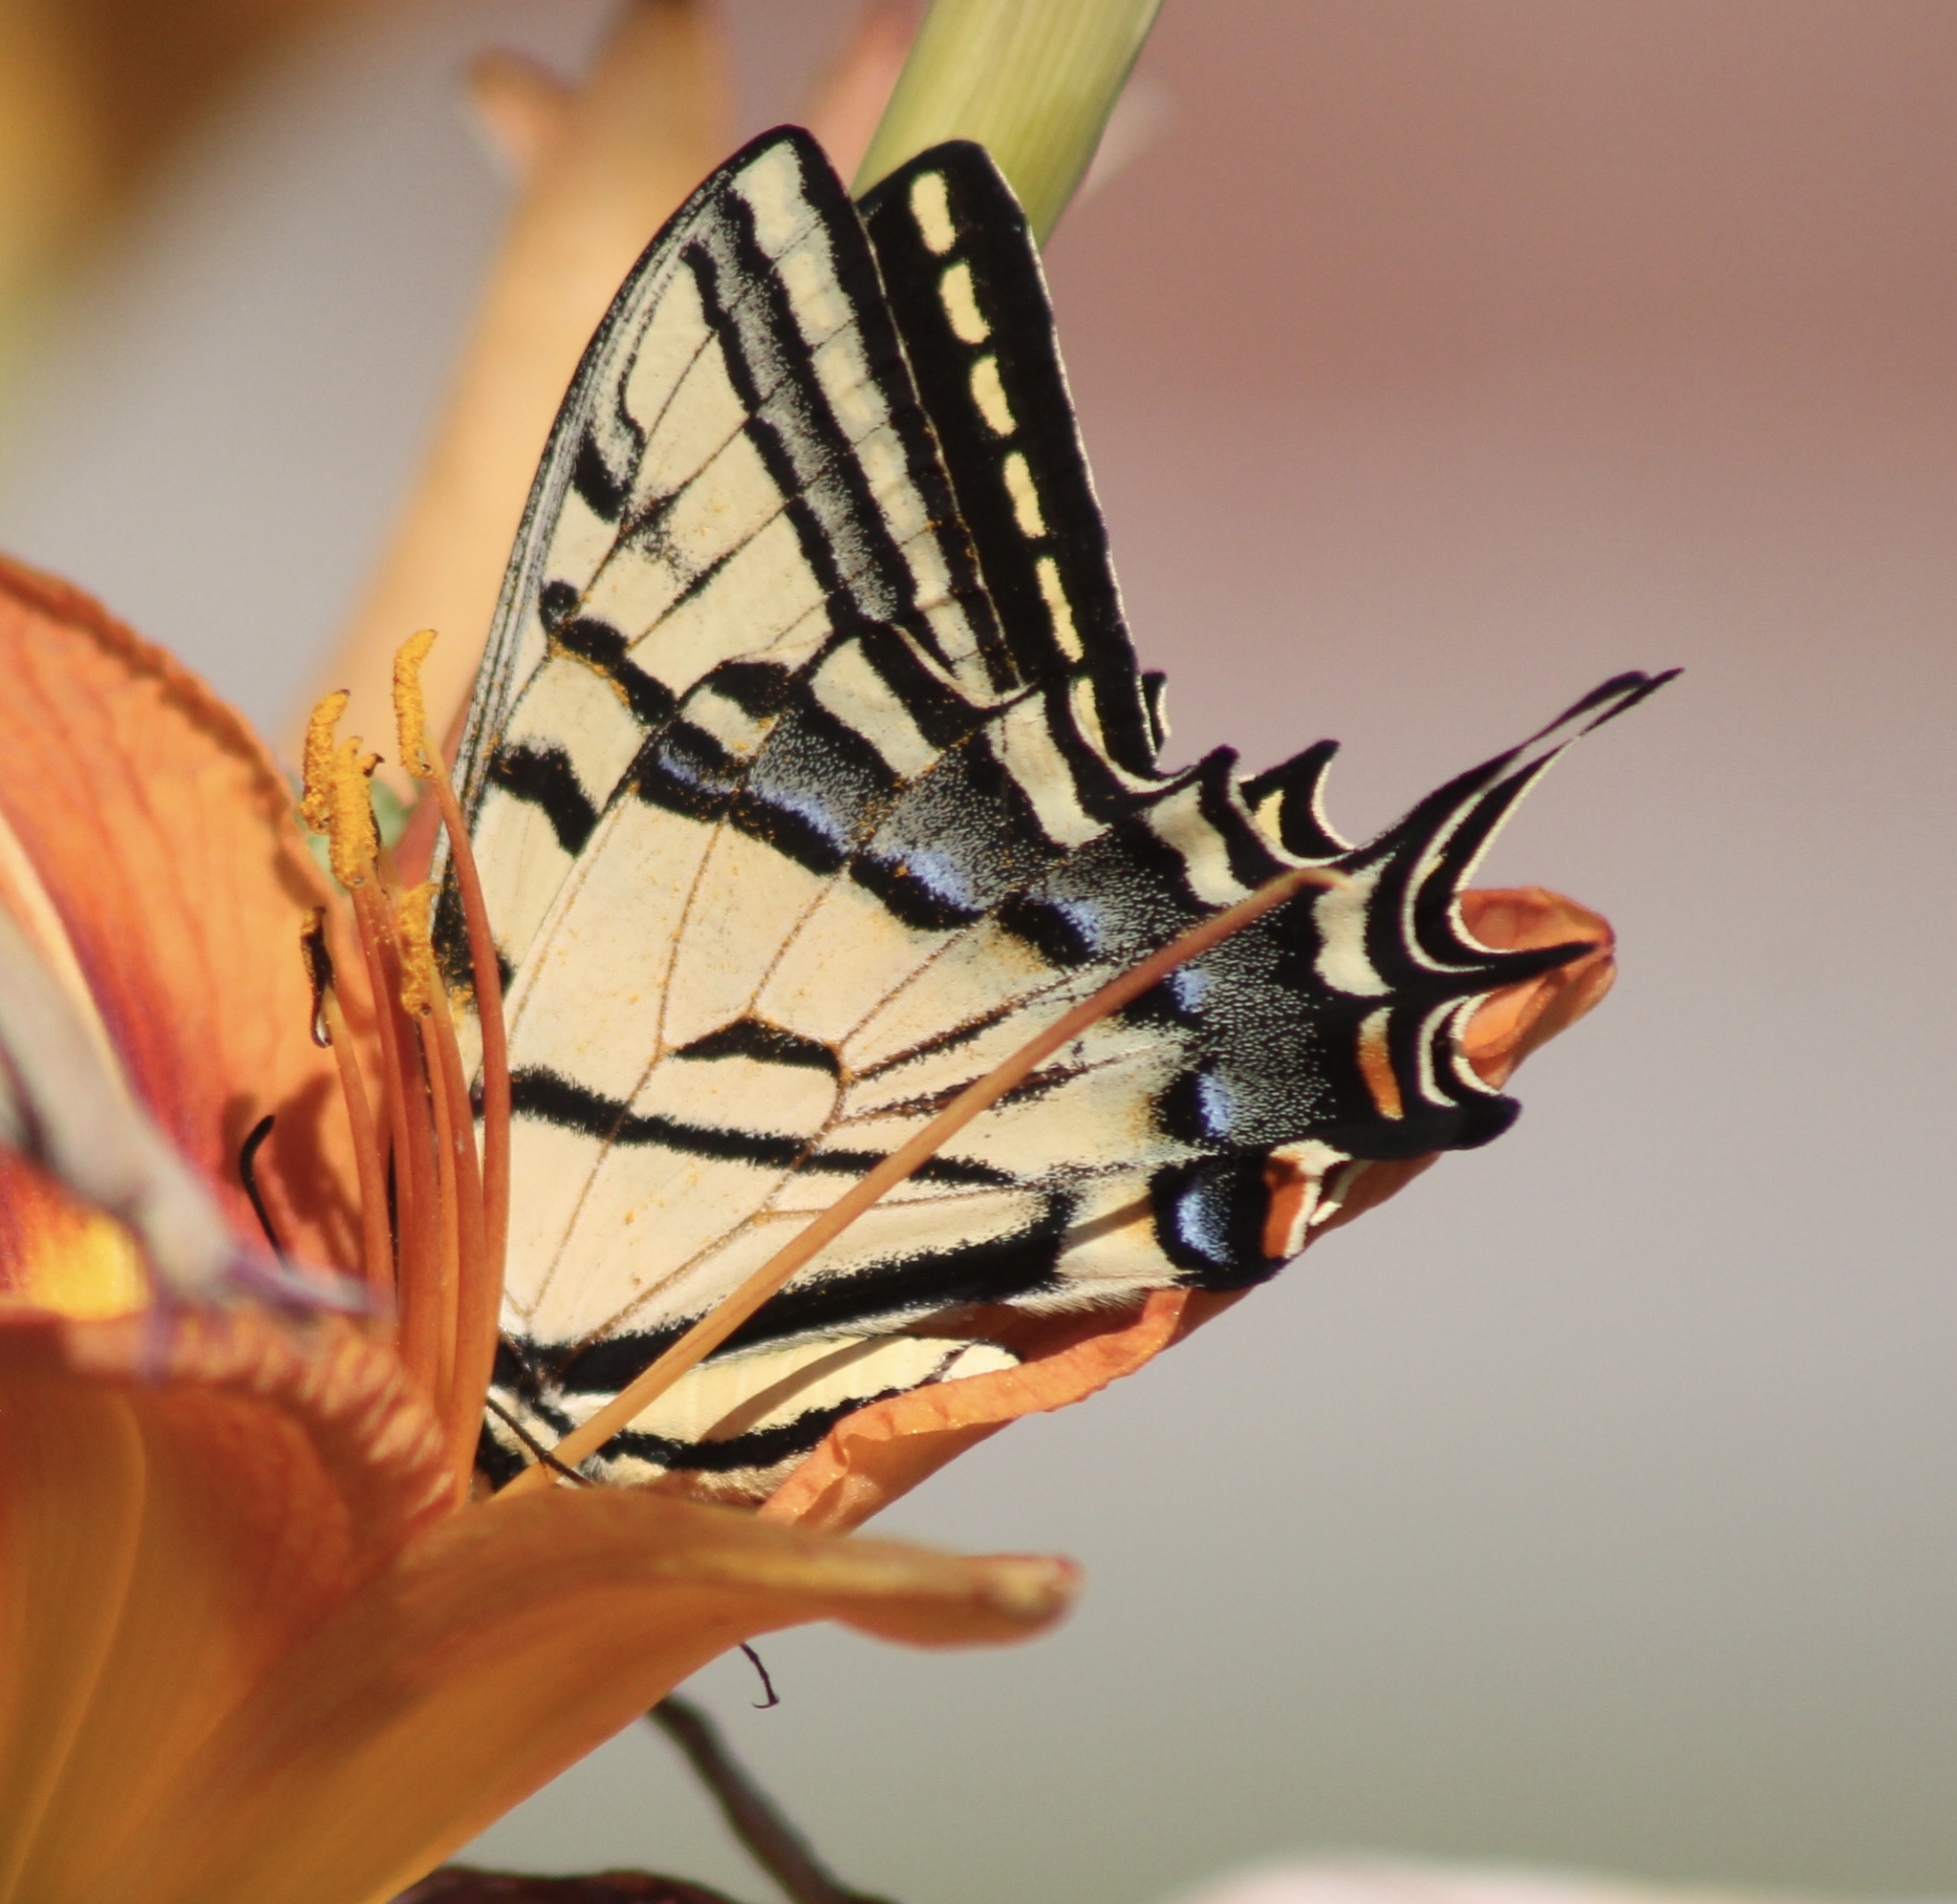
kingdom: Animalia
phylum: Arthropoda
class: Insecta
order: Lepidoptera
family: Papilionidae
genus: Papilio
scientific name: Papilio multicaudata
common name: Two-tailed tiger swallowtail
